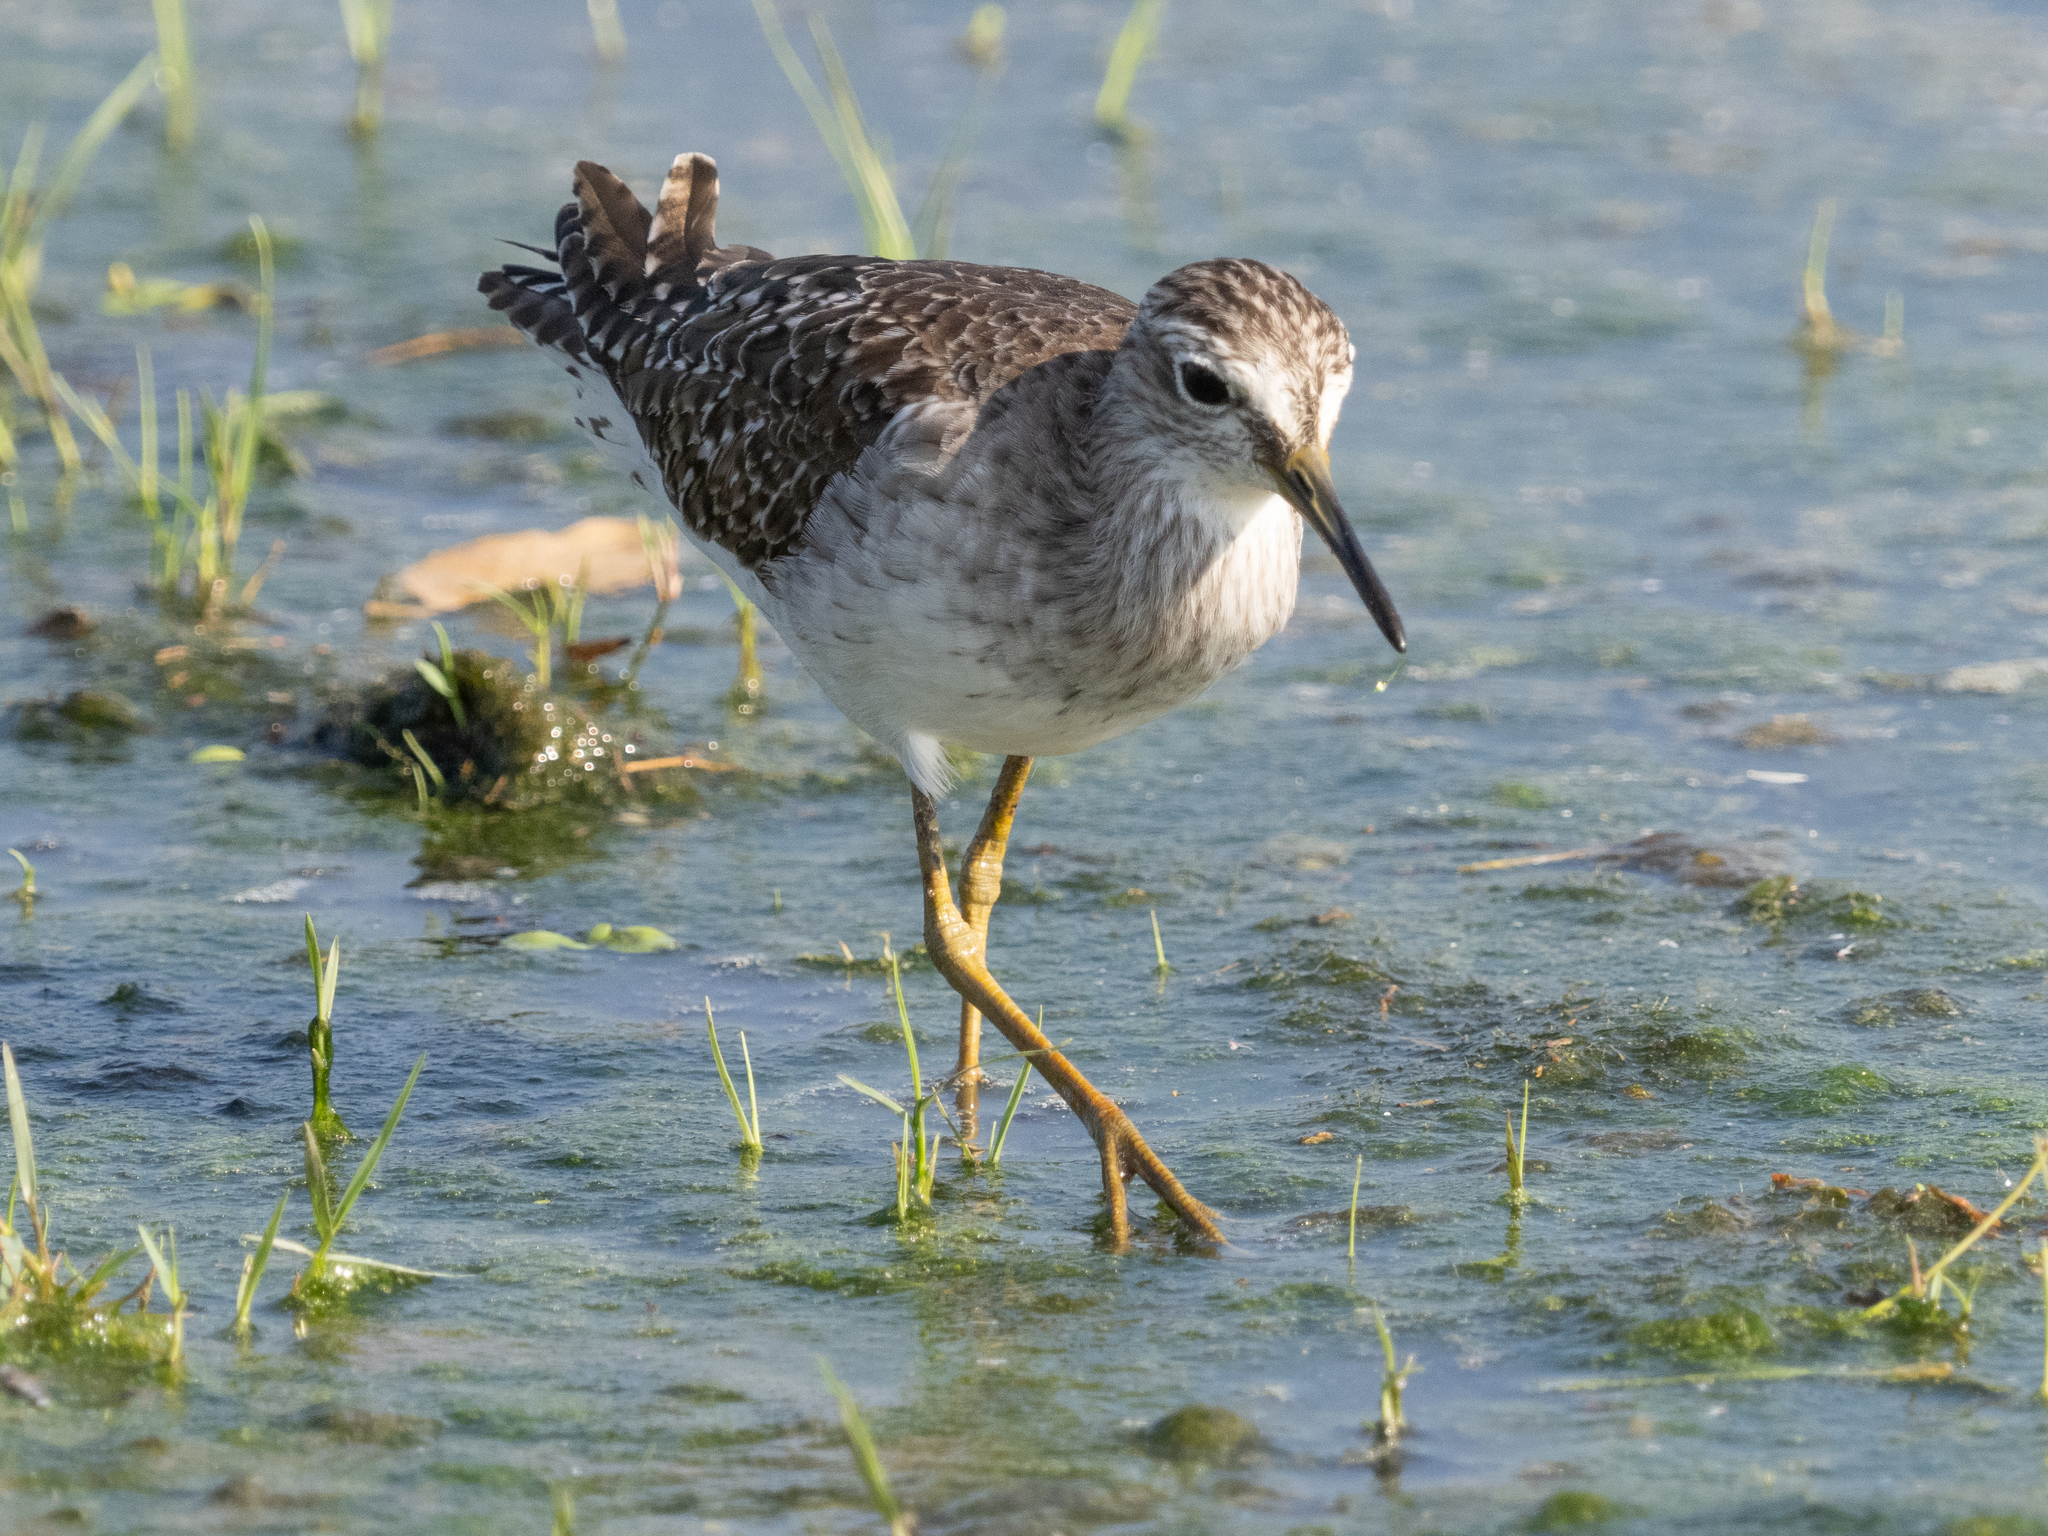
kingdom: Animalia
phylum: Chordata
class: Aves
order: Charadriiformes
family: Scolopacidae
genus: Tringa
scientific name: Tringa glareola
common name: Wood sandpiper
